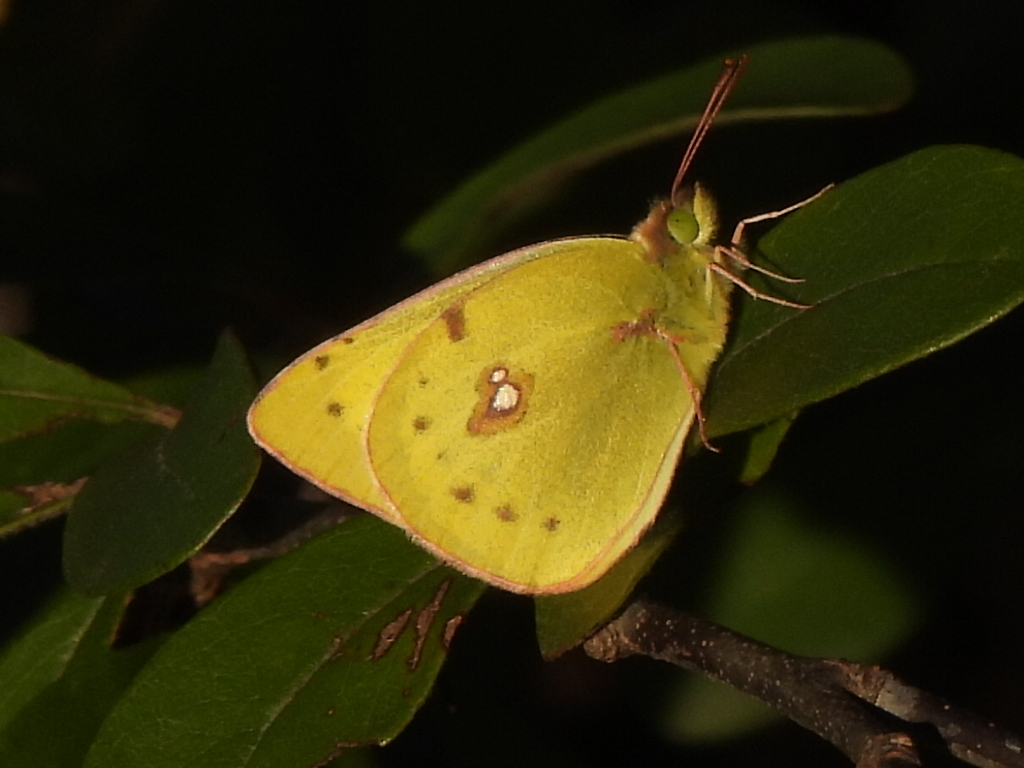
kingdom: Animalia
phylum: Arthropoda
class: Insecta
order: Lepidoptera
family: Pieridae
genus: Colias
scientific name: Colias eurytheme
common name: Alfalfa butterfly
